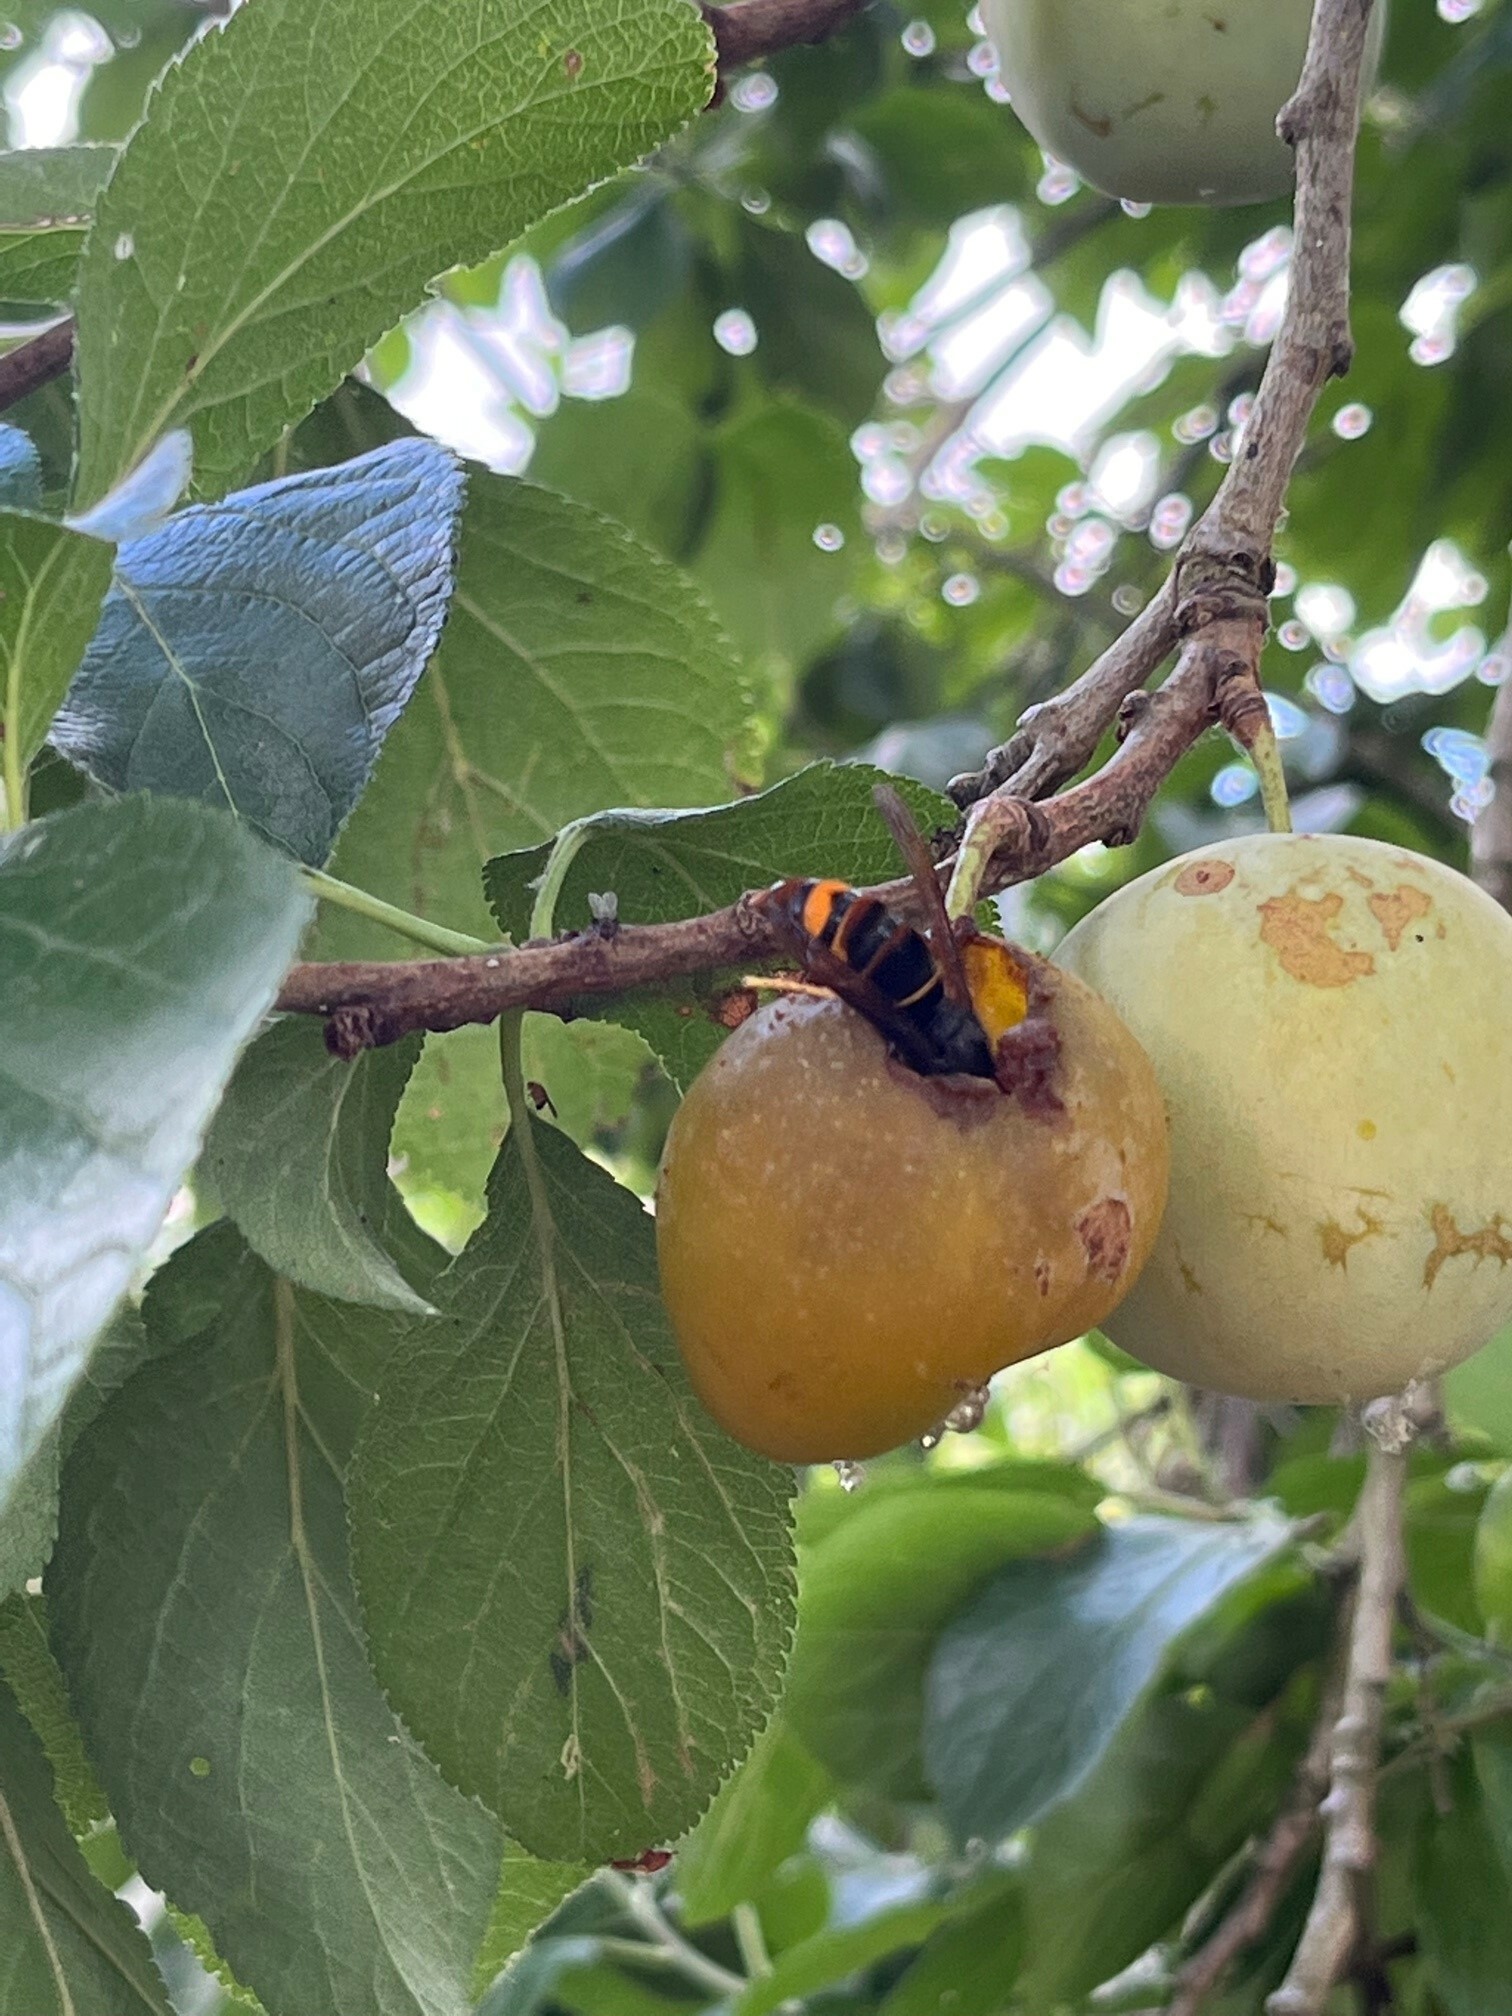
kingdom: Animalia
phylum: Arthropoda
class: Insecta
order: Hymenoptera
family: Vespidae
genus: Vespa
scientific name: Vespa velutina
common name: Asian hornet
